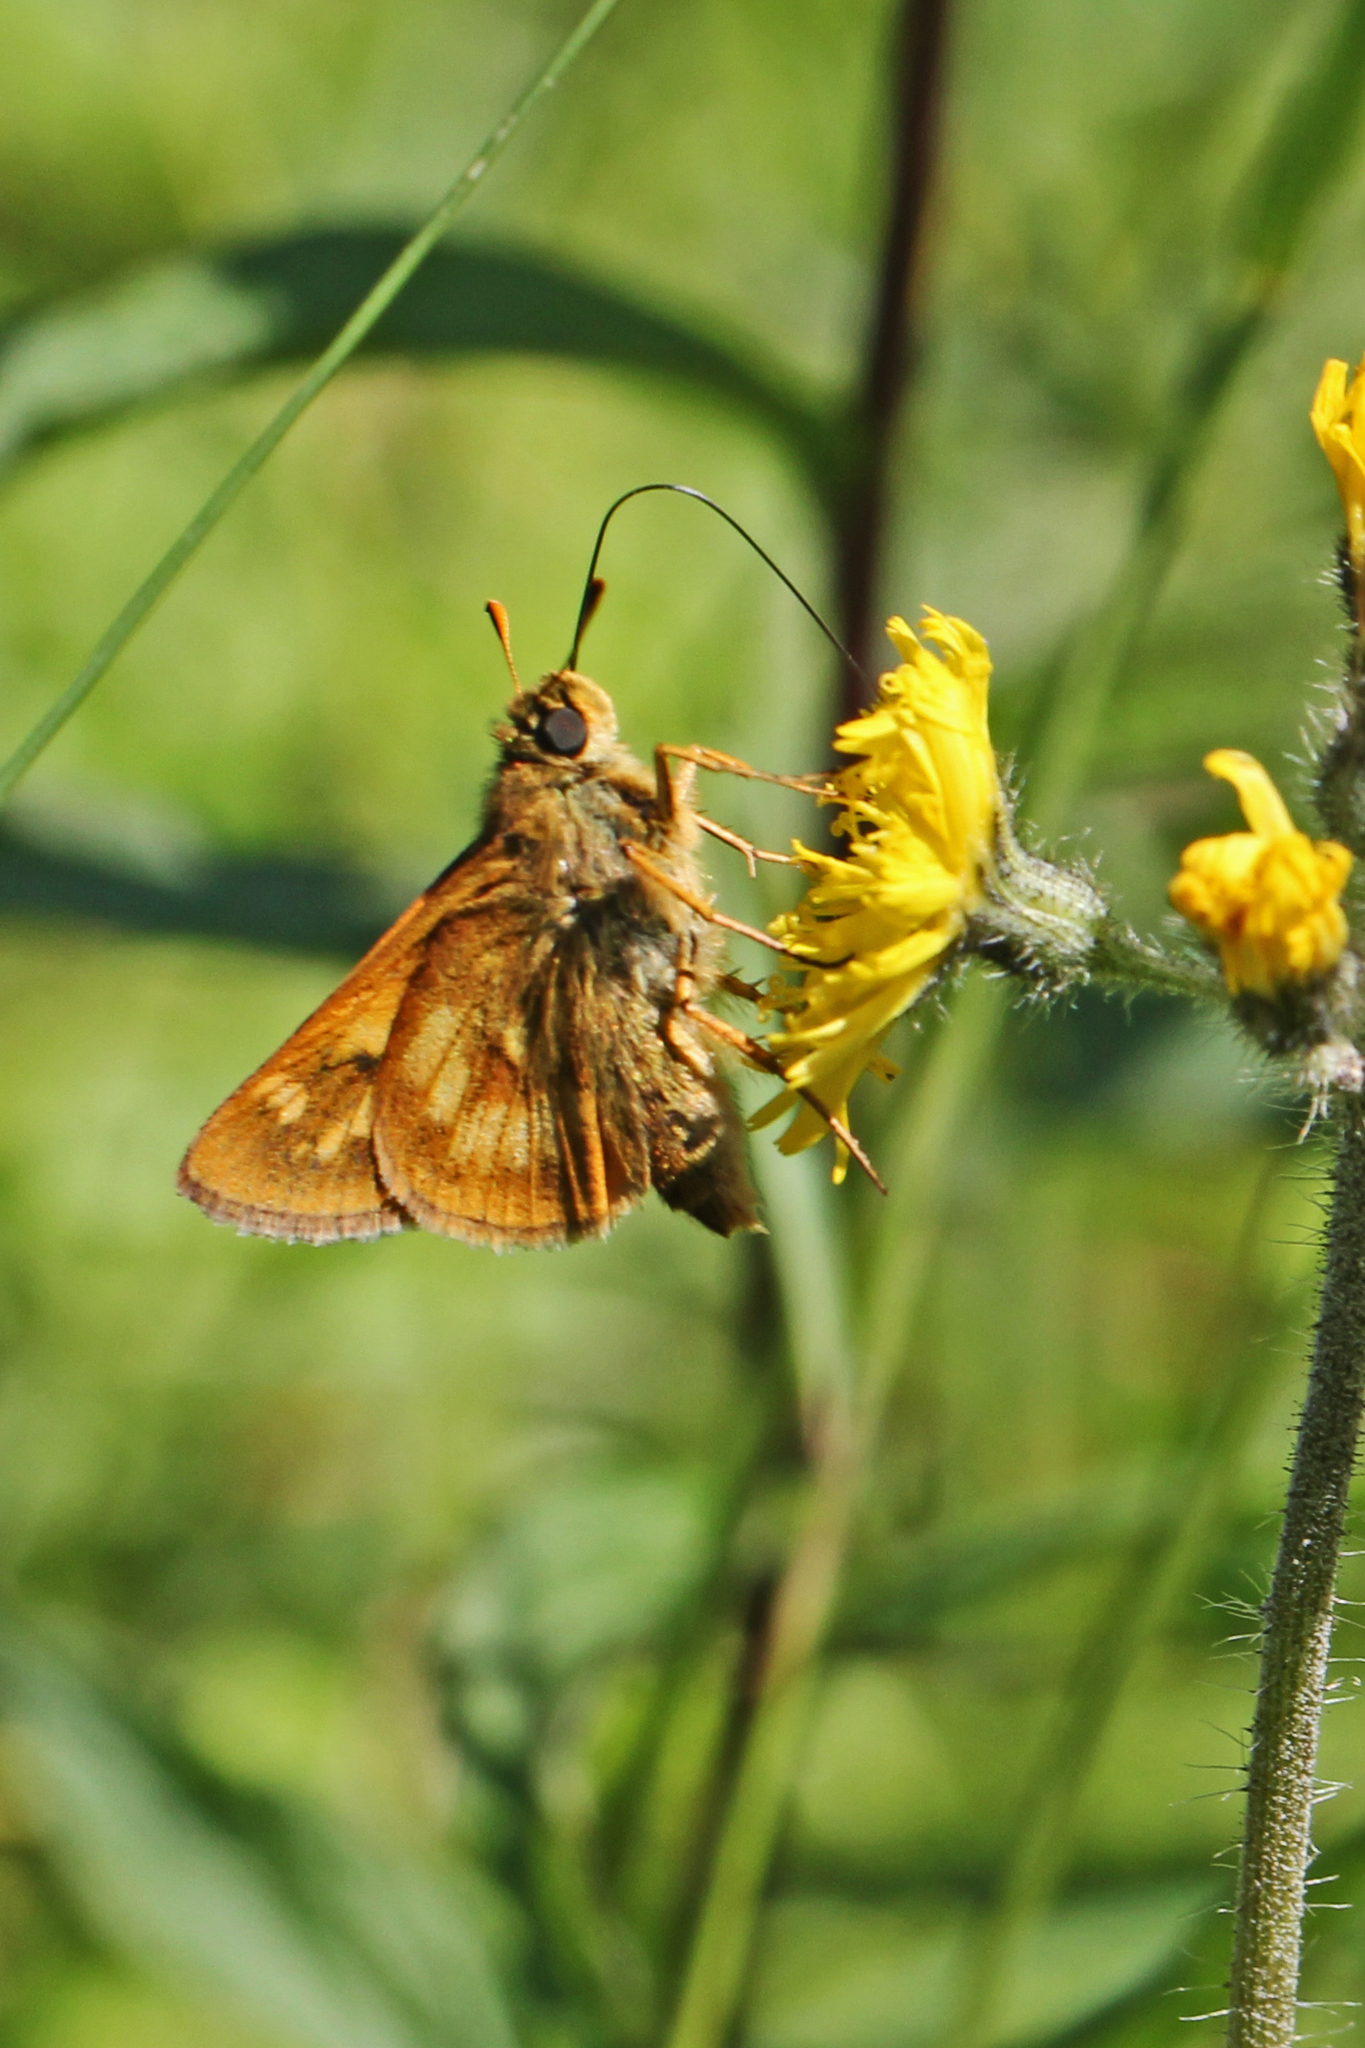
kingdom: Animalia
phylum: Arthropoda
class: Insecta
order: Lepidoptera
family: Hesperiidae
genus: Polites
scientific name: Polites mystic
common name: Long dash
